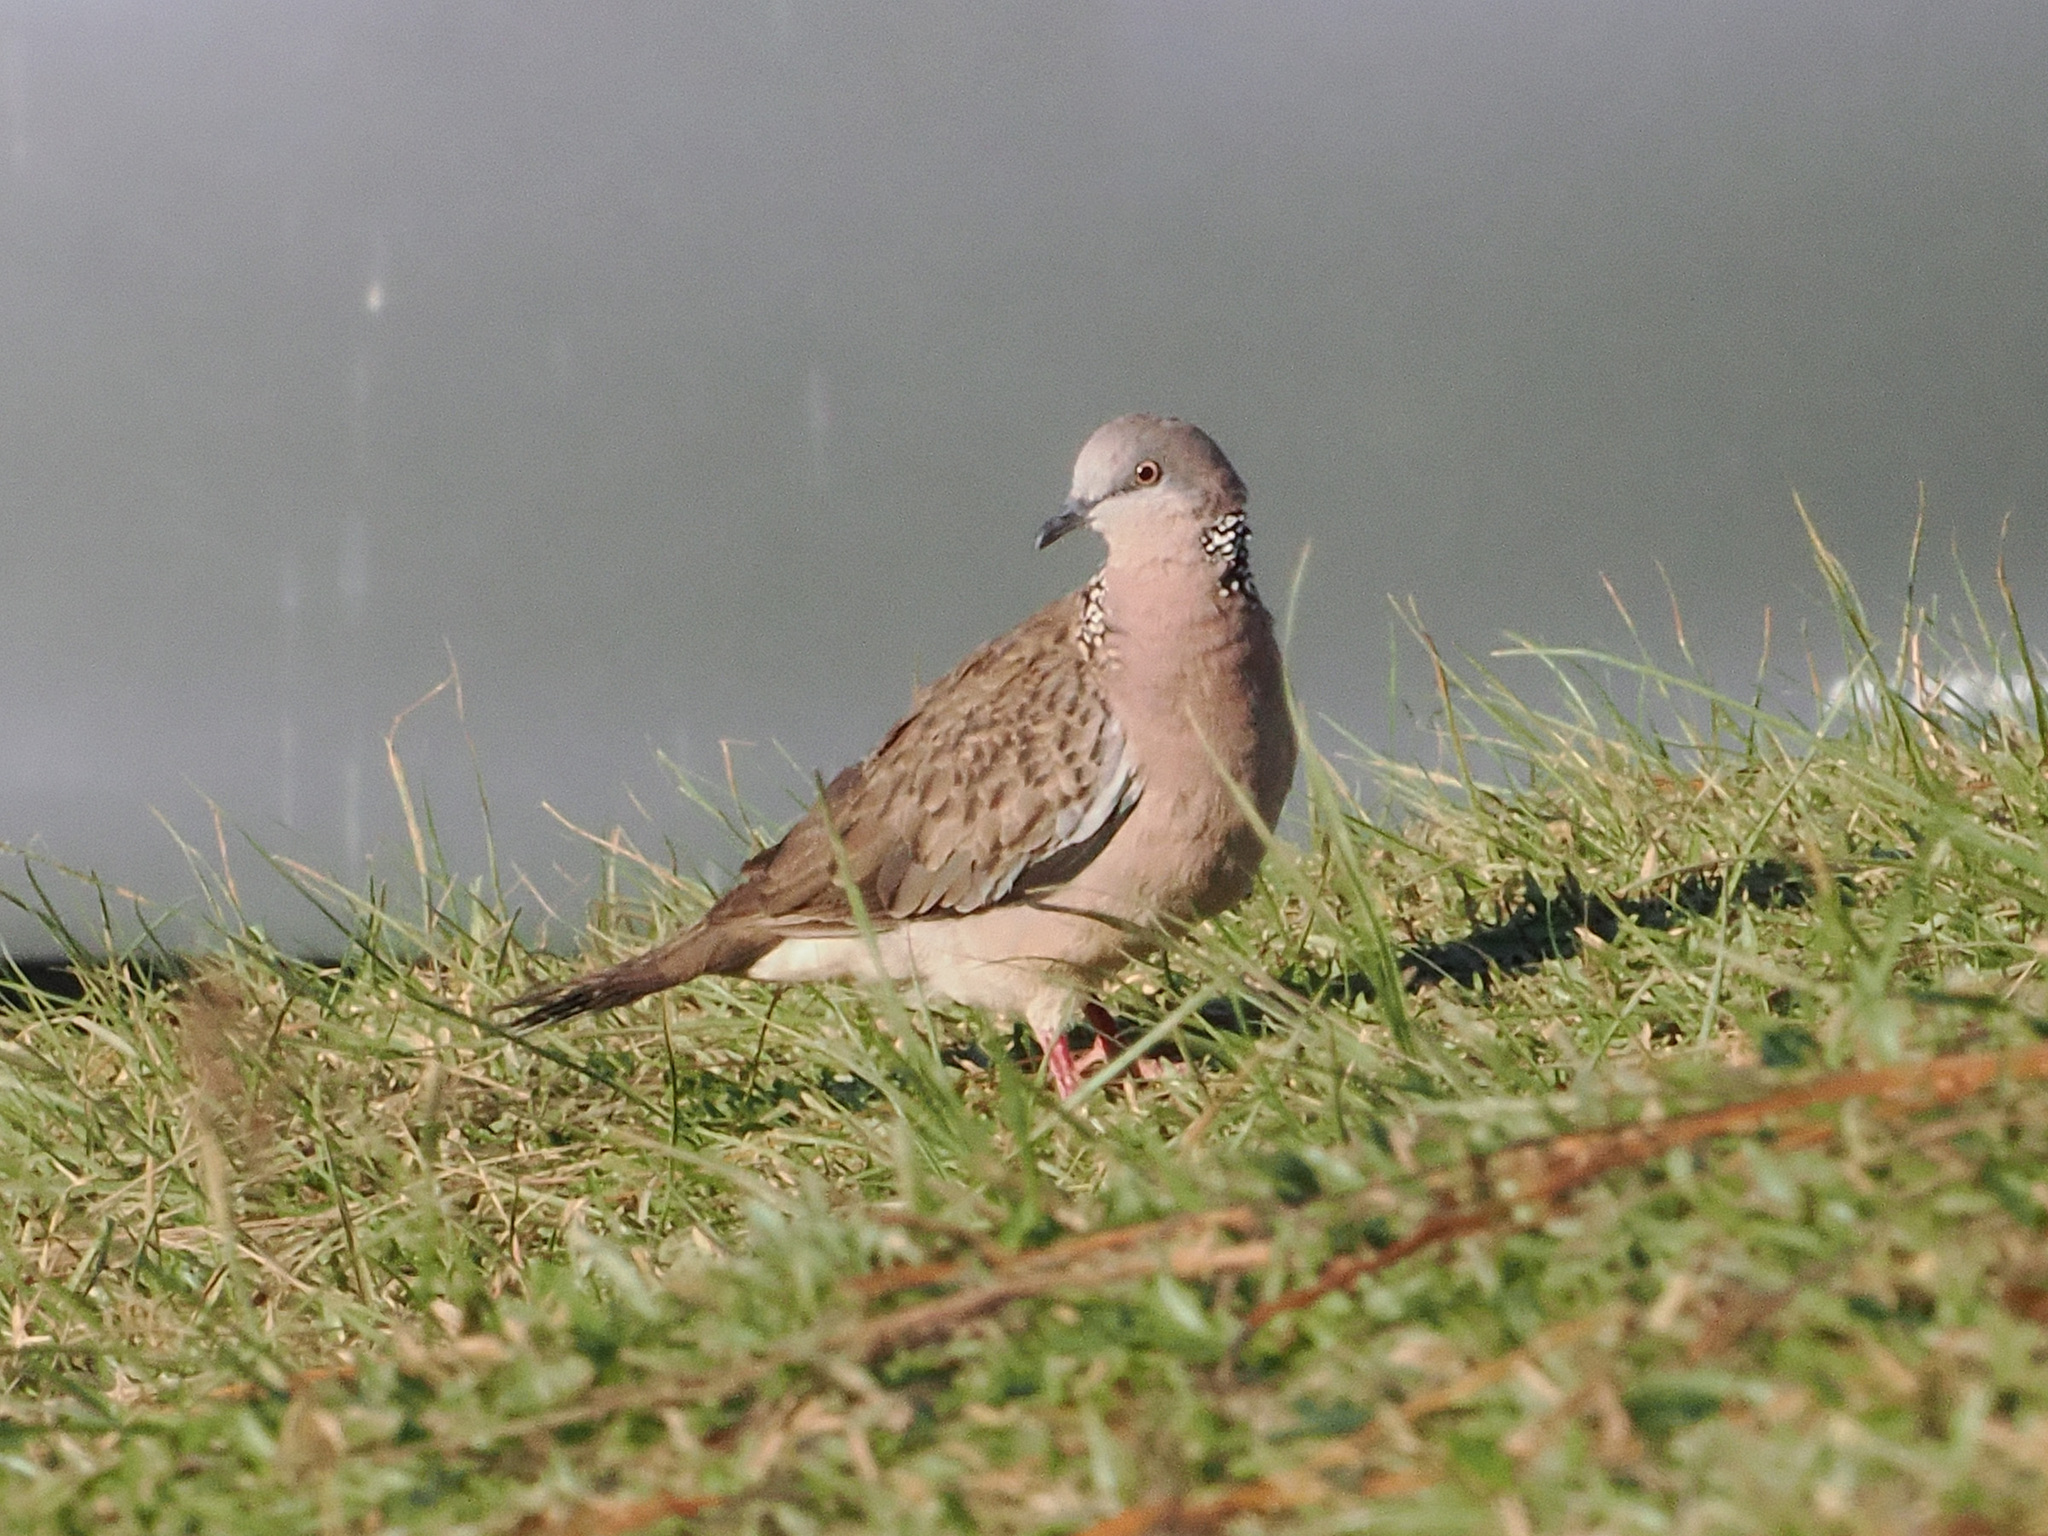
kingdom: Animalia
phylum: Chordata
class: Aves
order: Columbiformes
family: Columbidae
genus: Spilopelia
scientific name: Spilopelia chinensis
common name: Spotted dove
